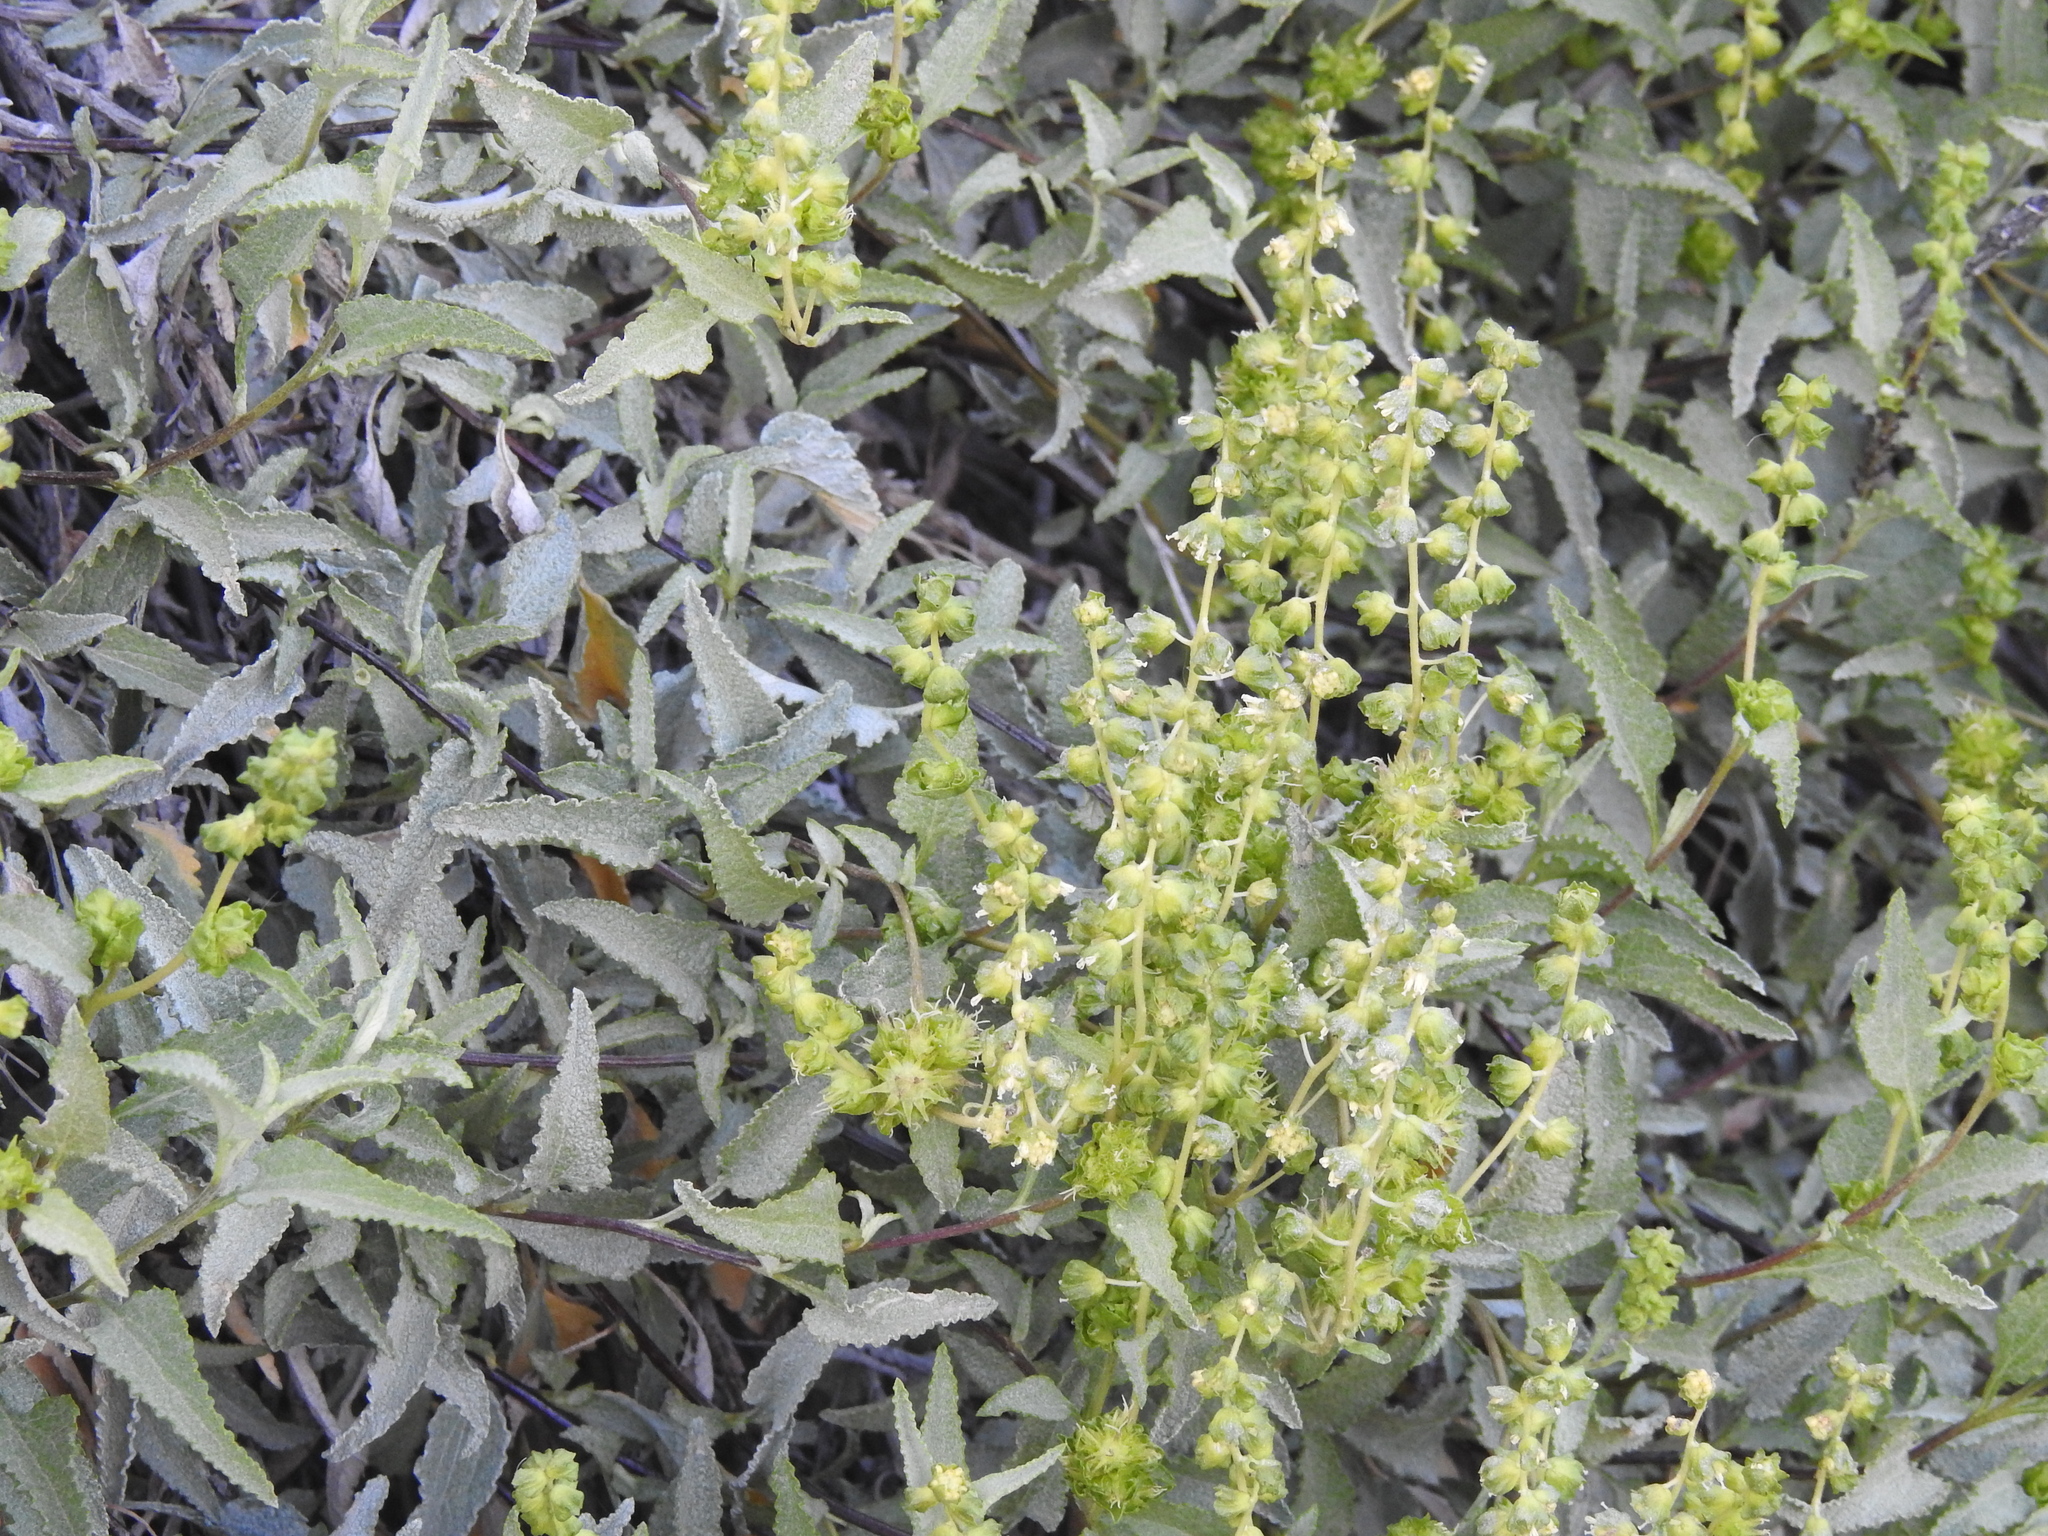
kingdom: Plantae
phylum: Tracheophyta
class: Magnoliopsida
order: Asterales
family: Asteraceae
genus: Ambrosia
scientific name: Ambrosia deltoidea
